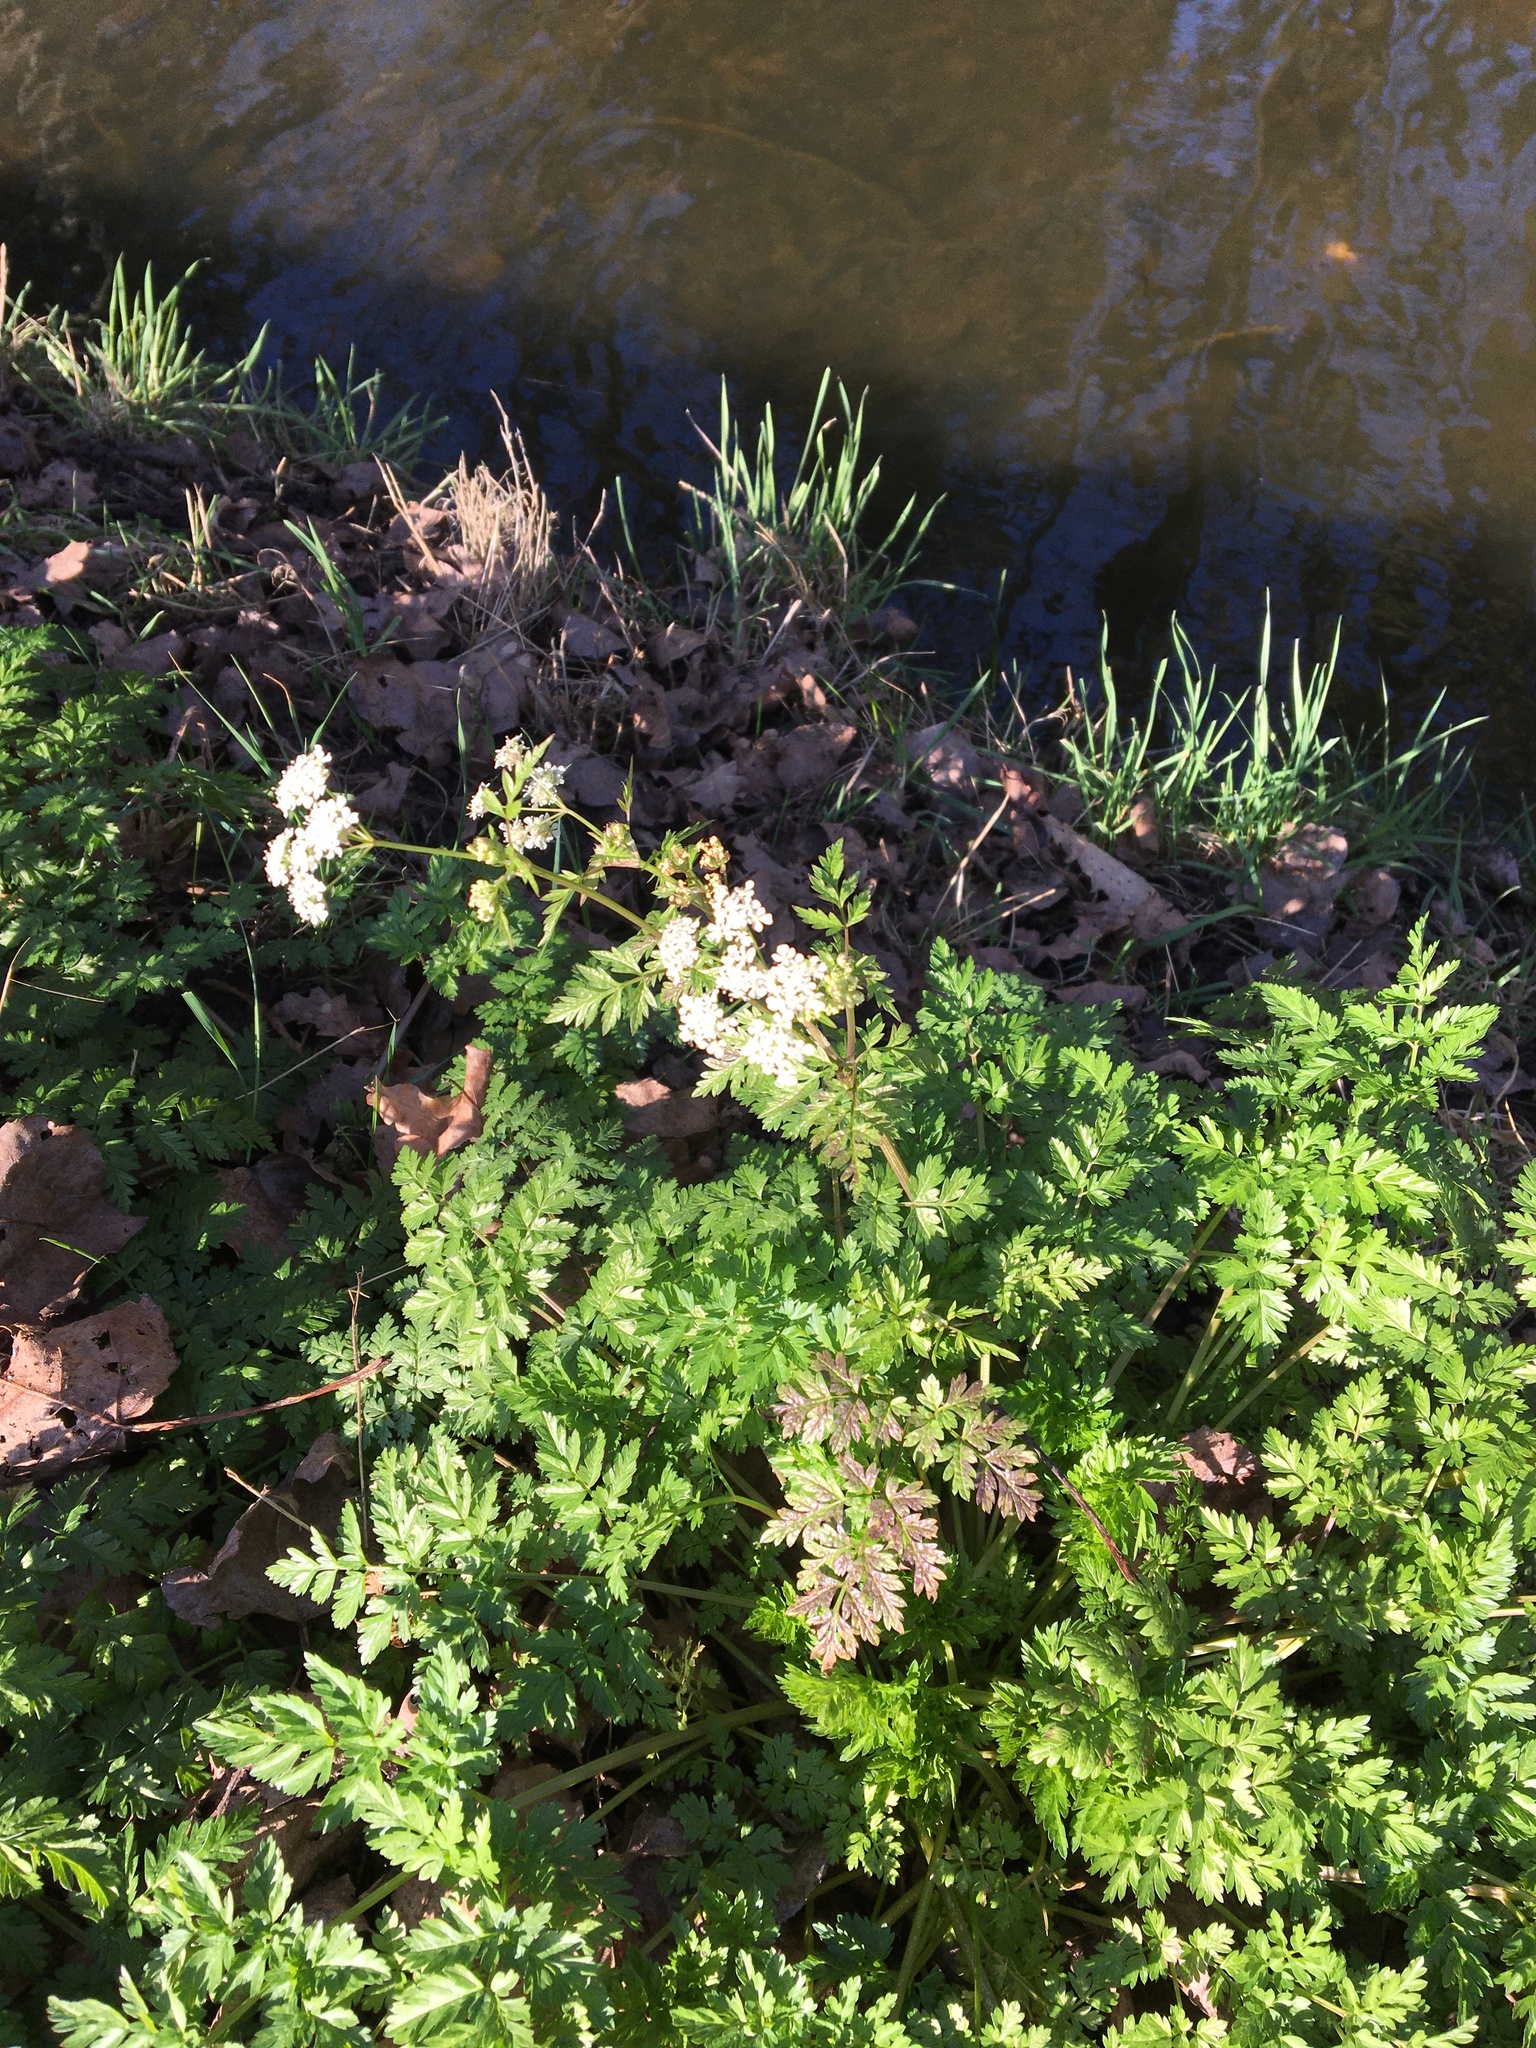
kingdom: Plantae
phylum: Tracheophyta
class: Magnoliopsida
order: Apiales
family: Apiaceae
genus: Anthriscus
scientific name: Anthriscus sylvestris
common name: Cow parsley
